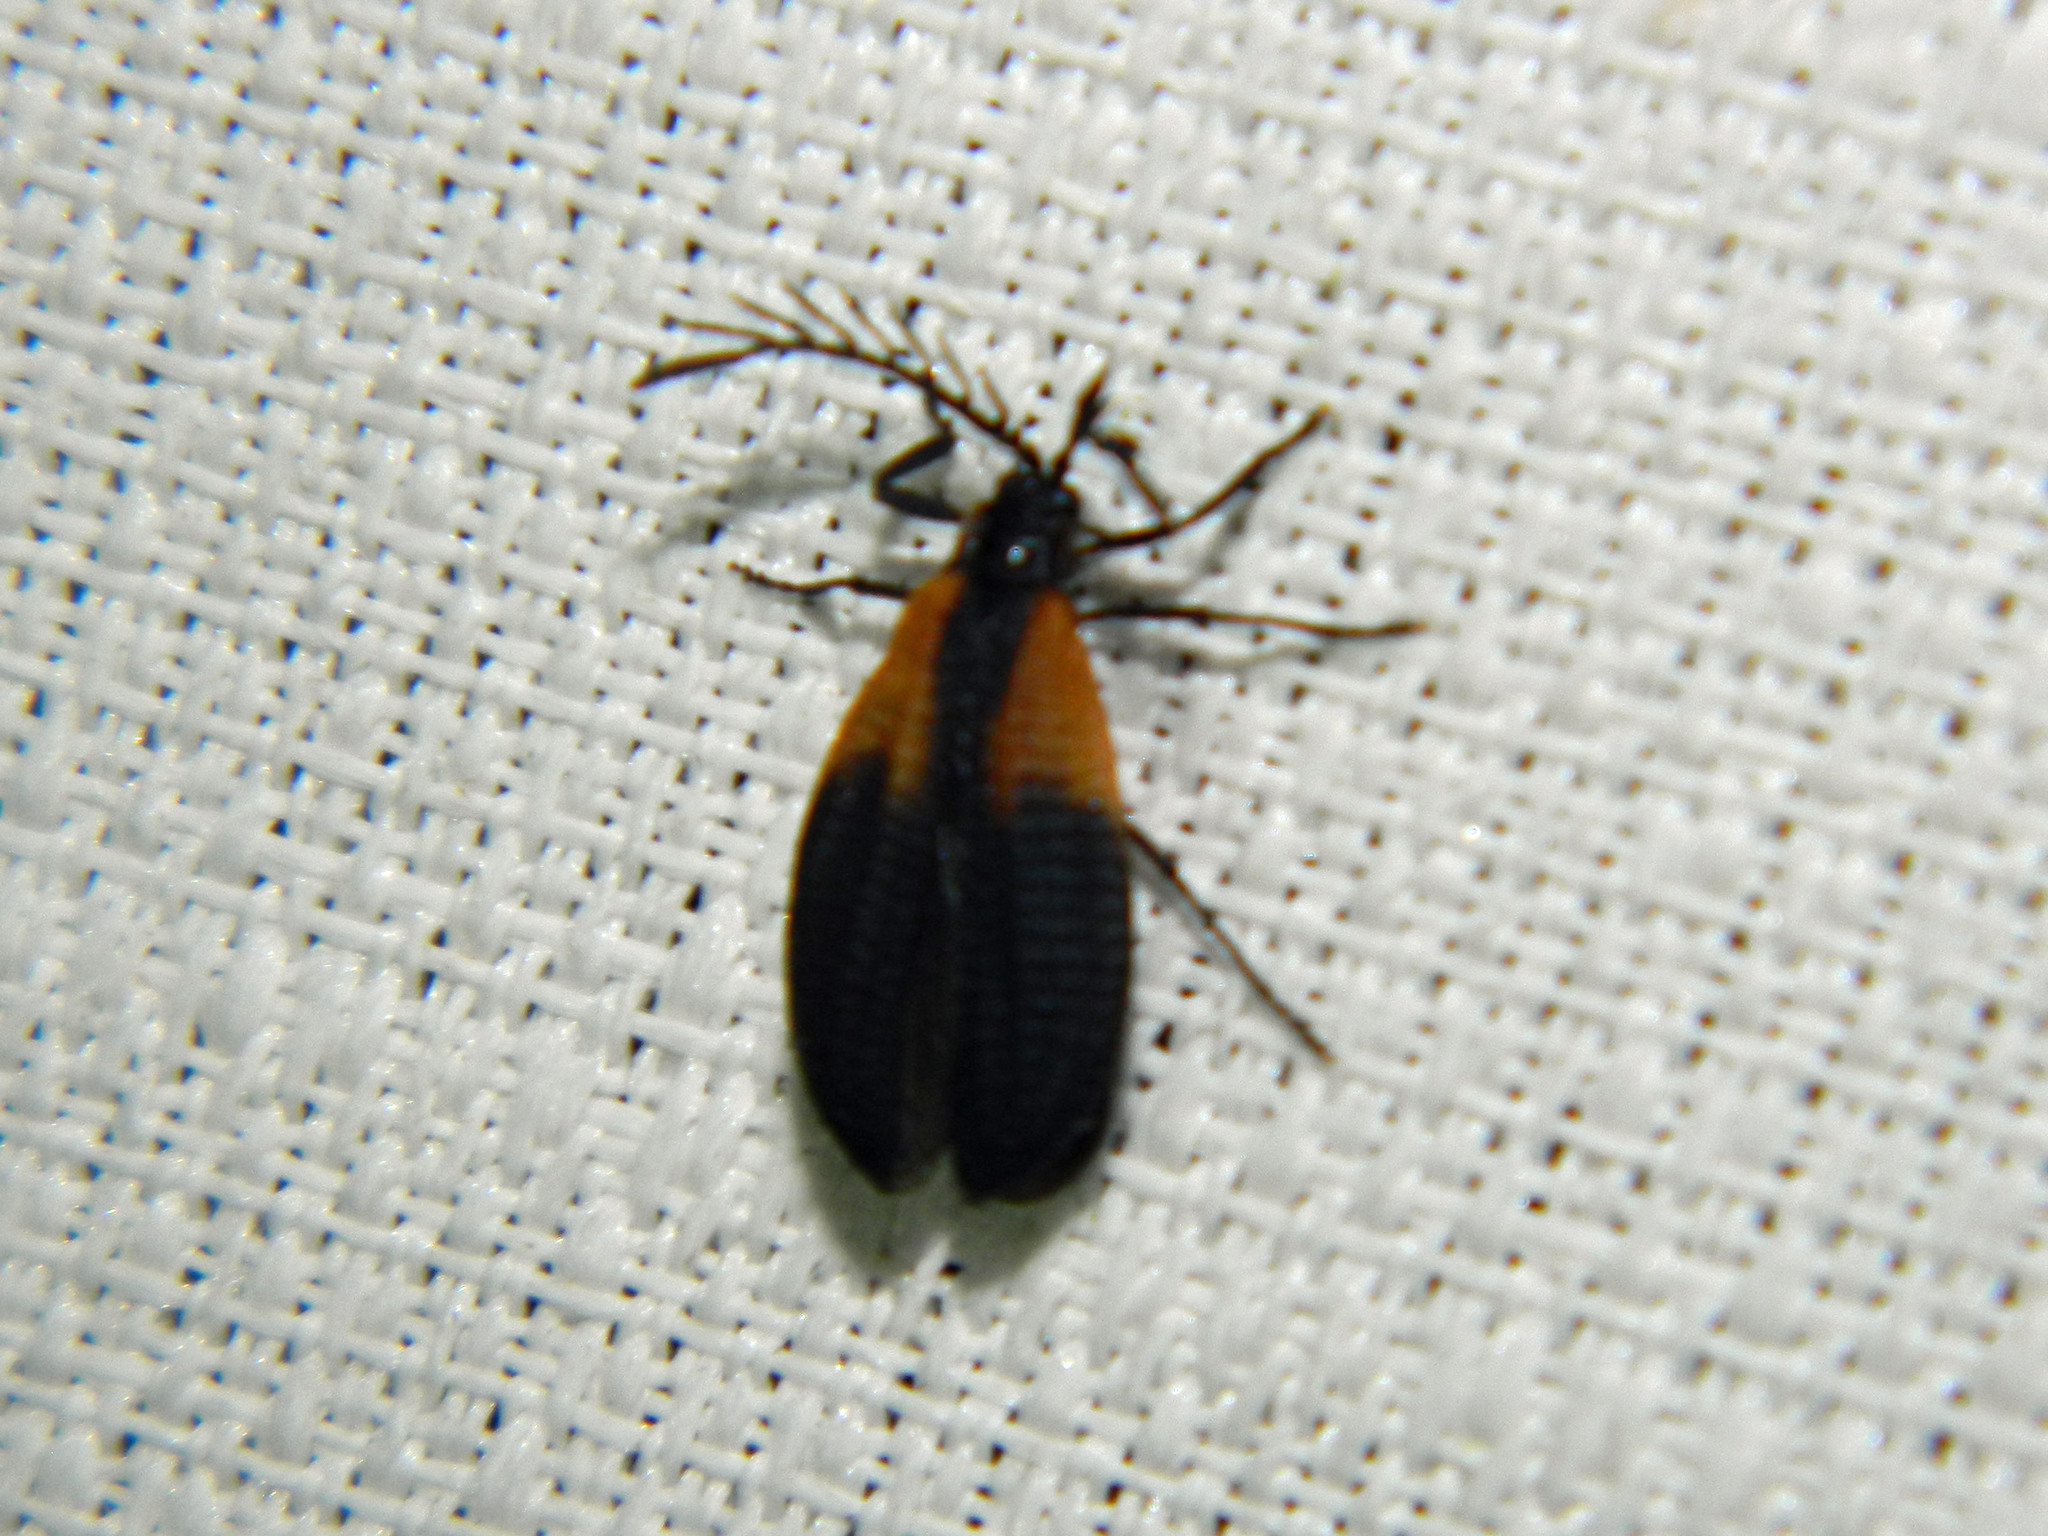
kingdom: Animalia
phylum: Arthropoda
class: Insecta
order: Coleoptera
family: Lycidae
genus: Caenia
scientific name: Caenia dimidiata
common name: Terminal net-winged beetle
